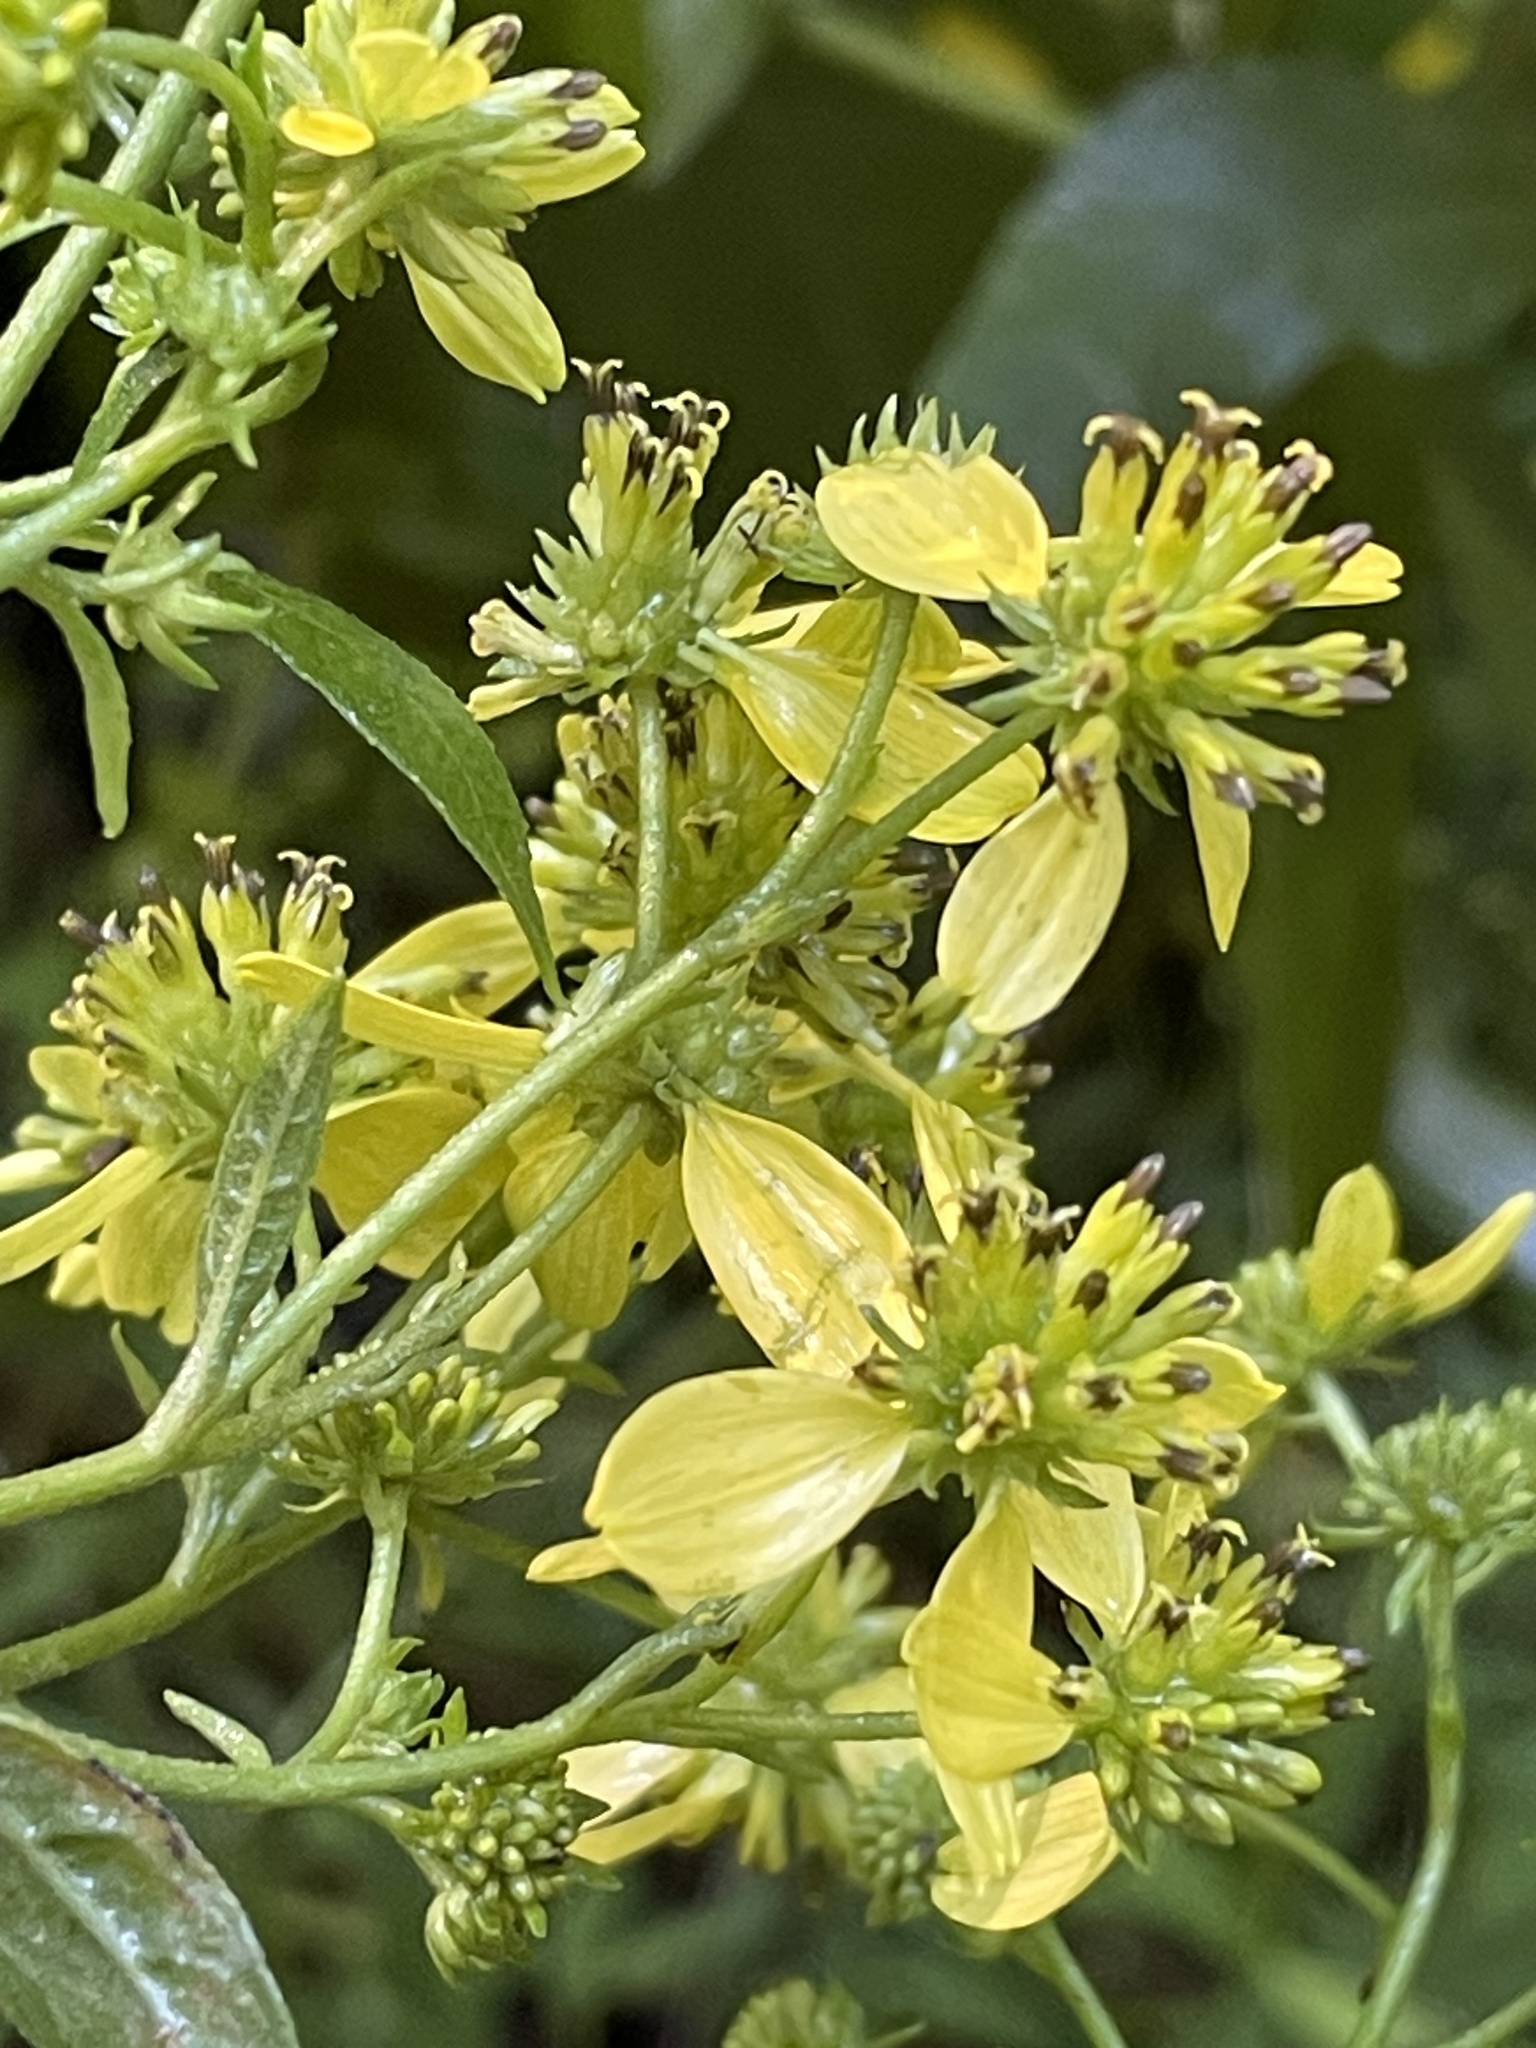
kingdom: Plantae
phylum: Tracheophyta
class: Magnoliopsida
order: Asterales
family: Asteraceae
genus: Verbesina
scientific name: Verbesina alternifolia
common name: Wingstem
